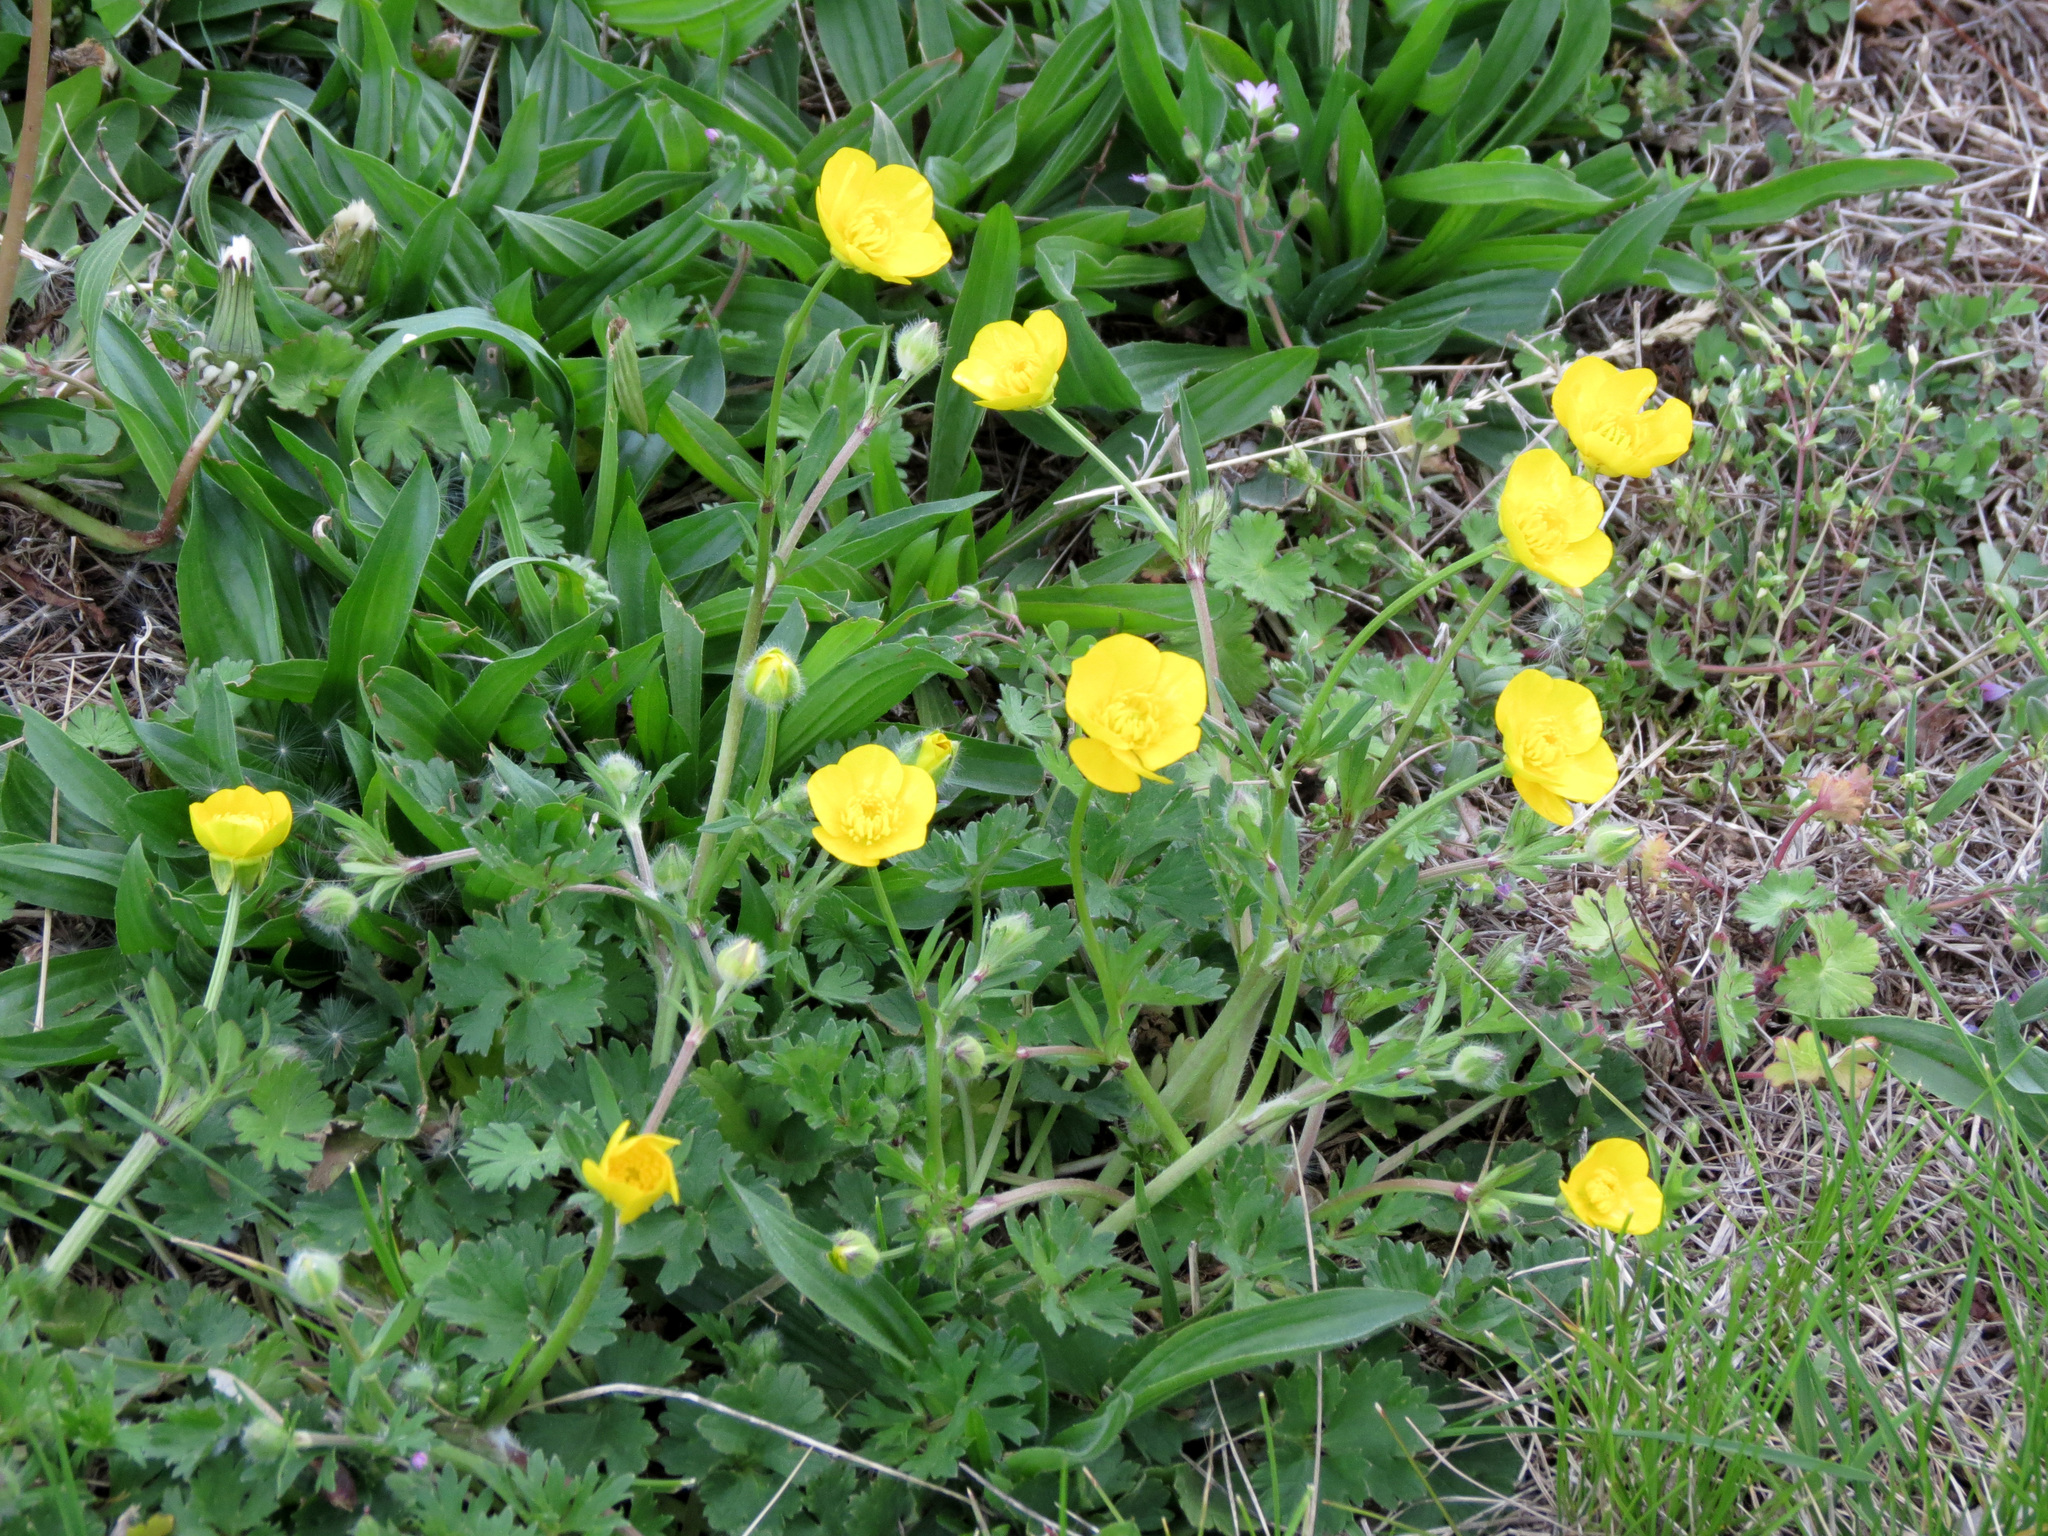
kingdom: Plantae
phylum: Tracheophyta
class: Magnoliopsida
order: Ranunculales
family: Ranunculaceae
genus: Ranunculus
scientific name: Ranunculus bulbosus
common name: Bulbous buttercup
